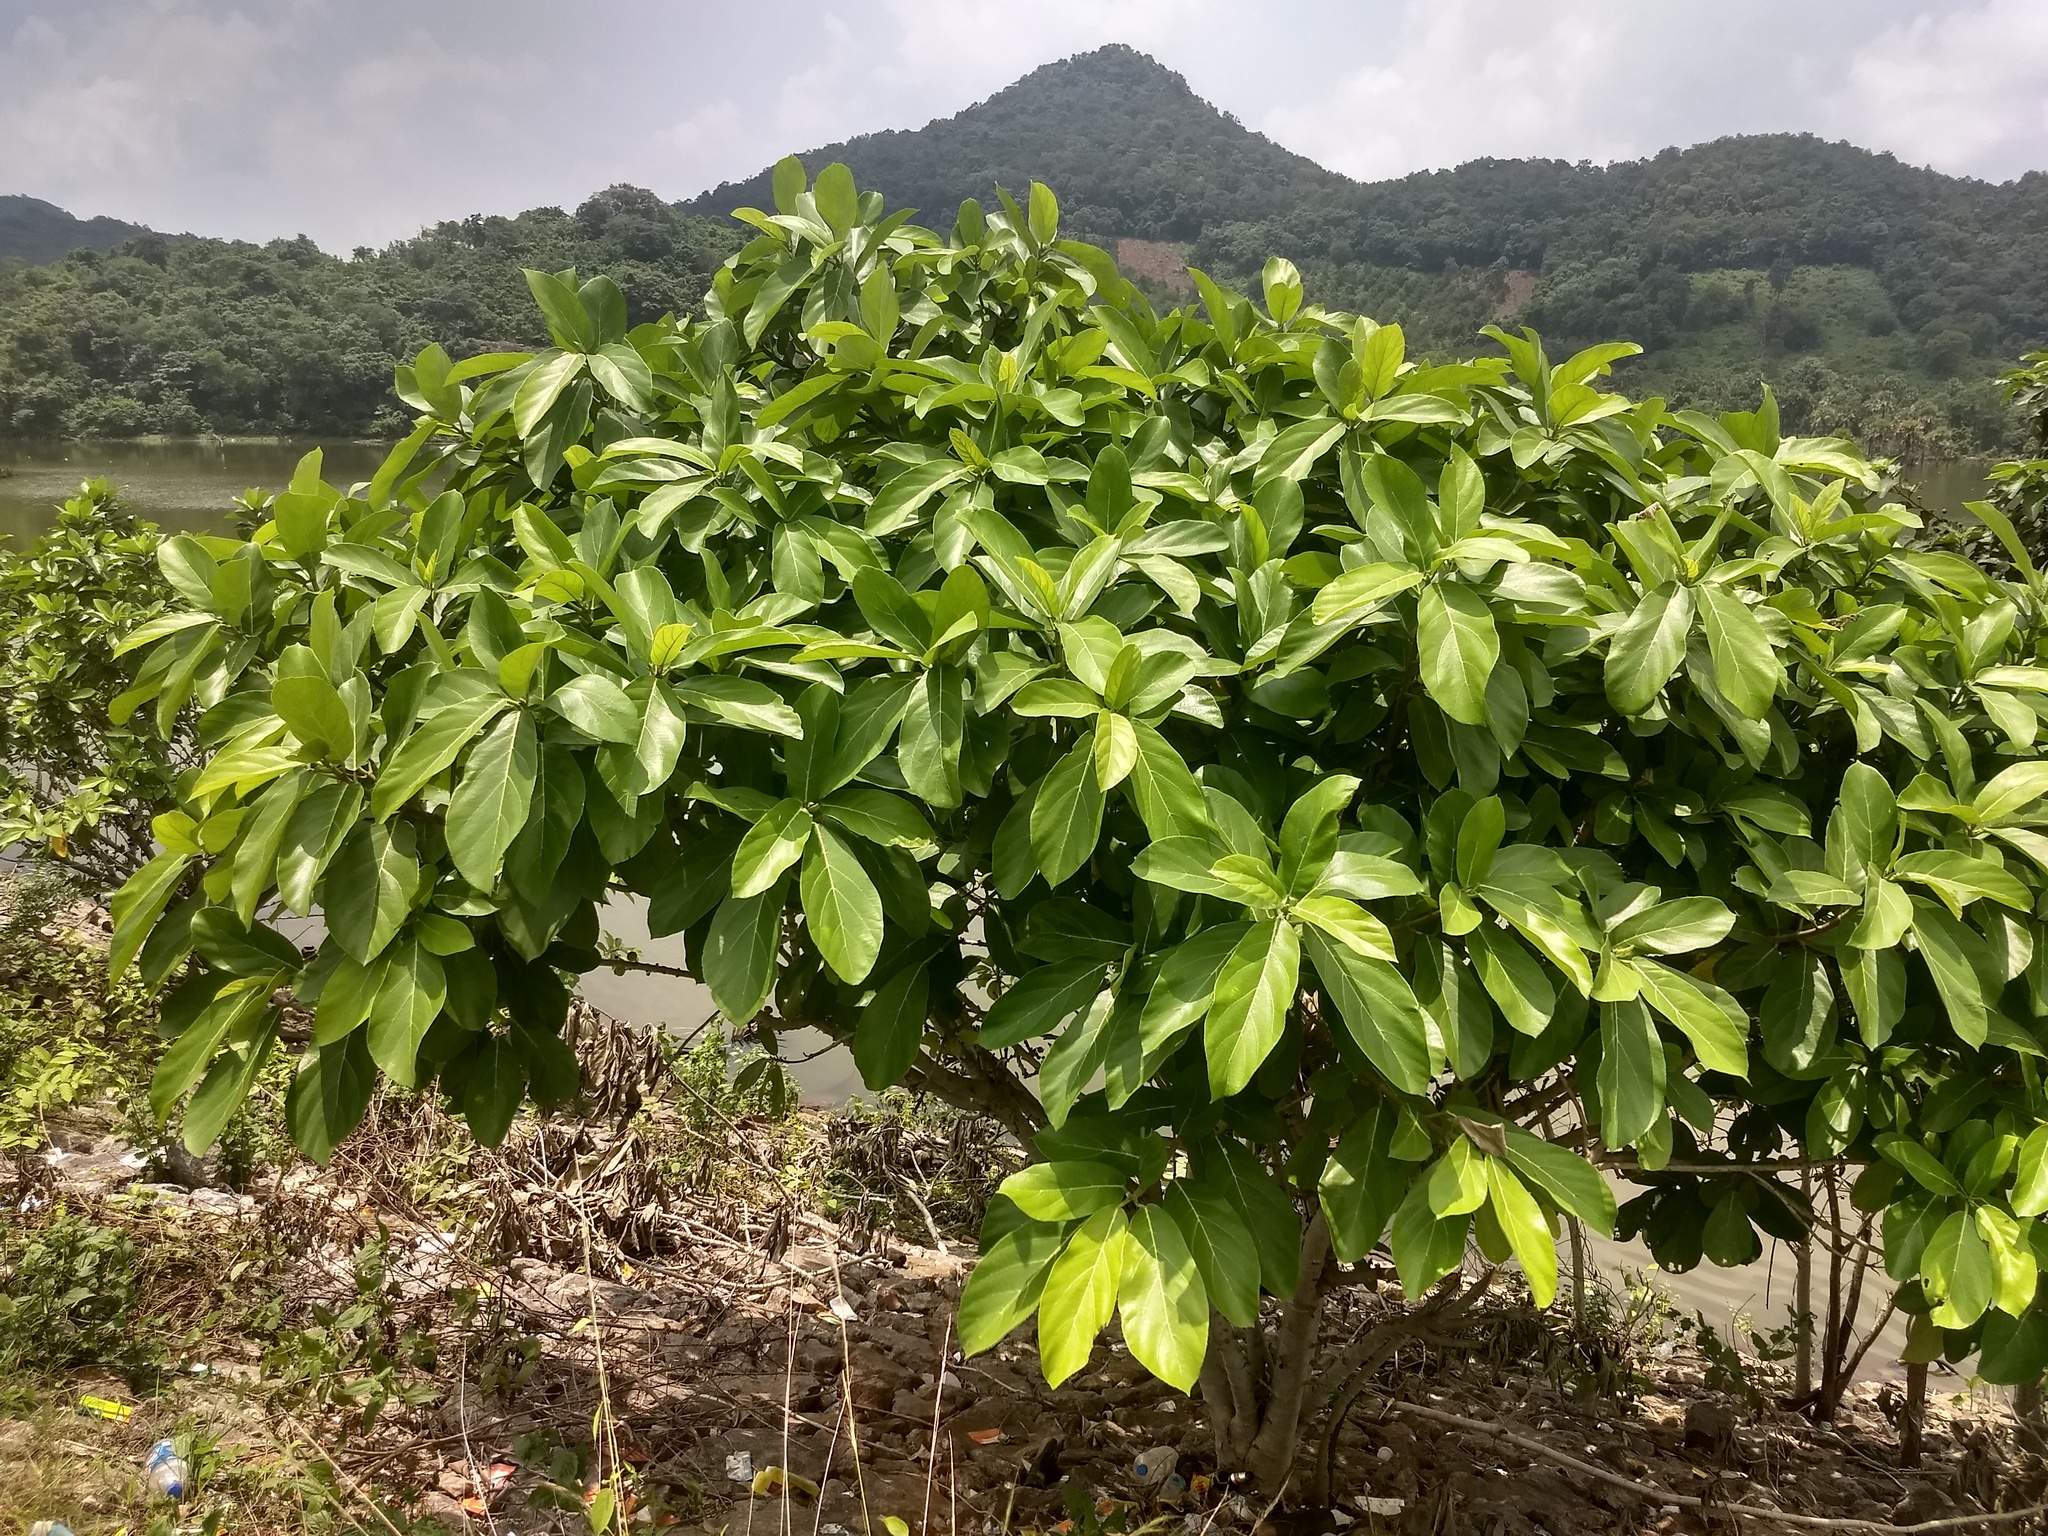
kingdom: Plantae
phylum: Tracheophyta
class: Magnoliopsida
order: Rosales
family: Moraceae
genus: Ficus
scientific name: Ficus hispida
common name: Hairy fig
